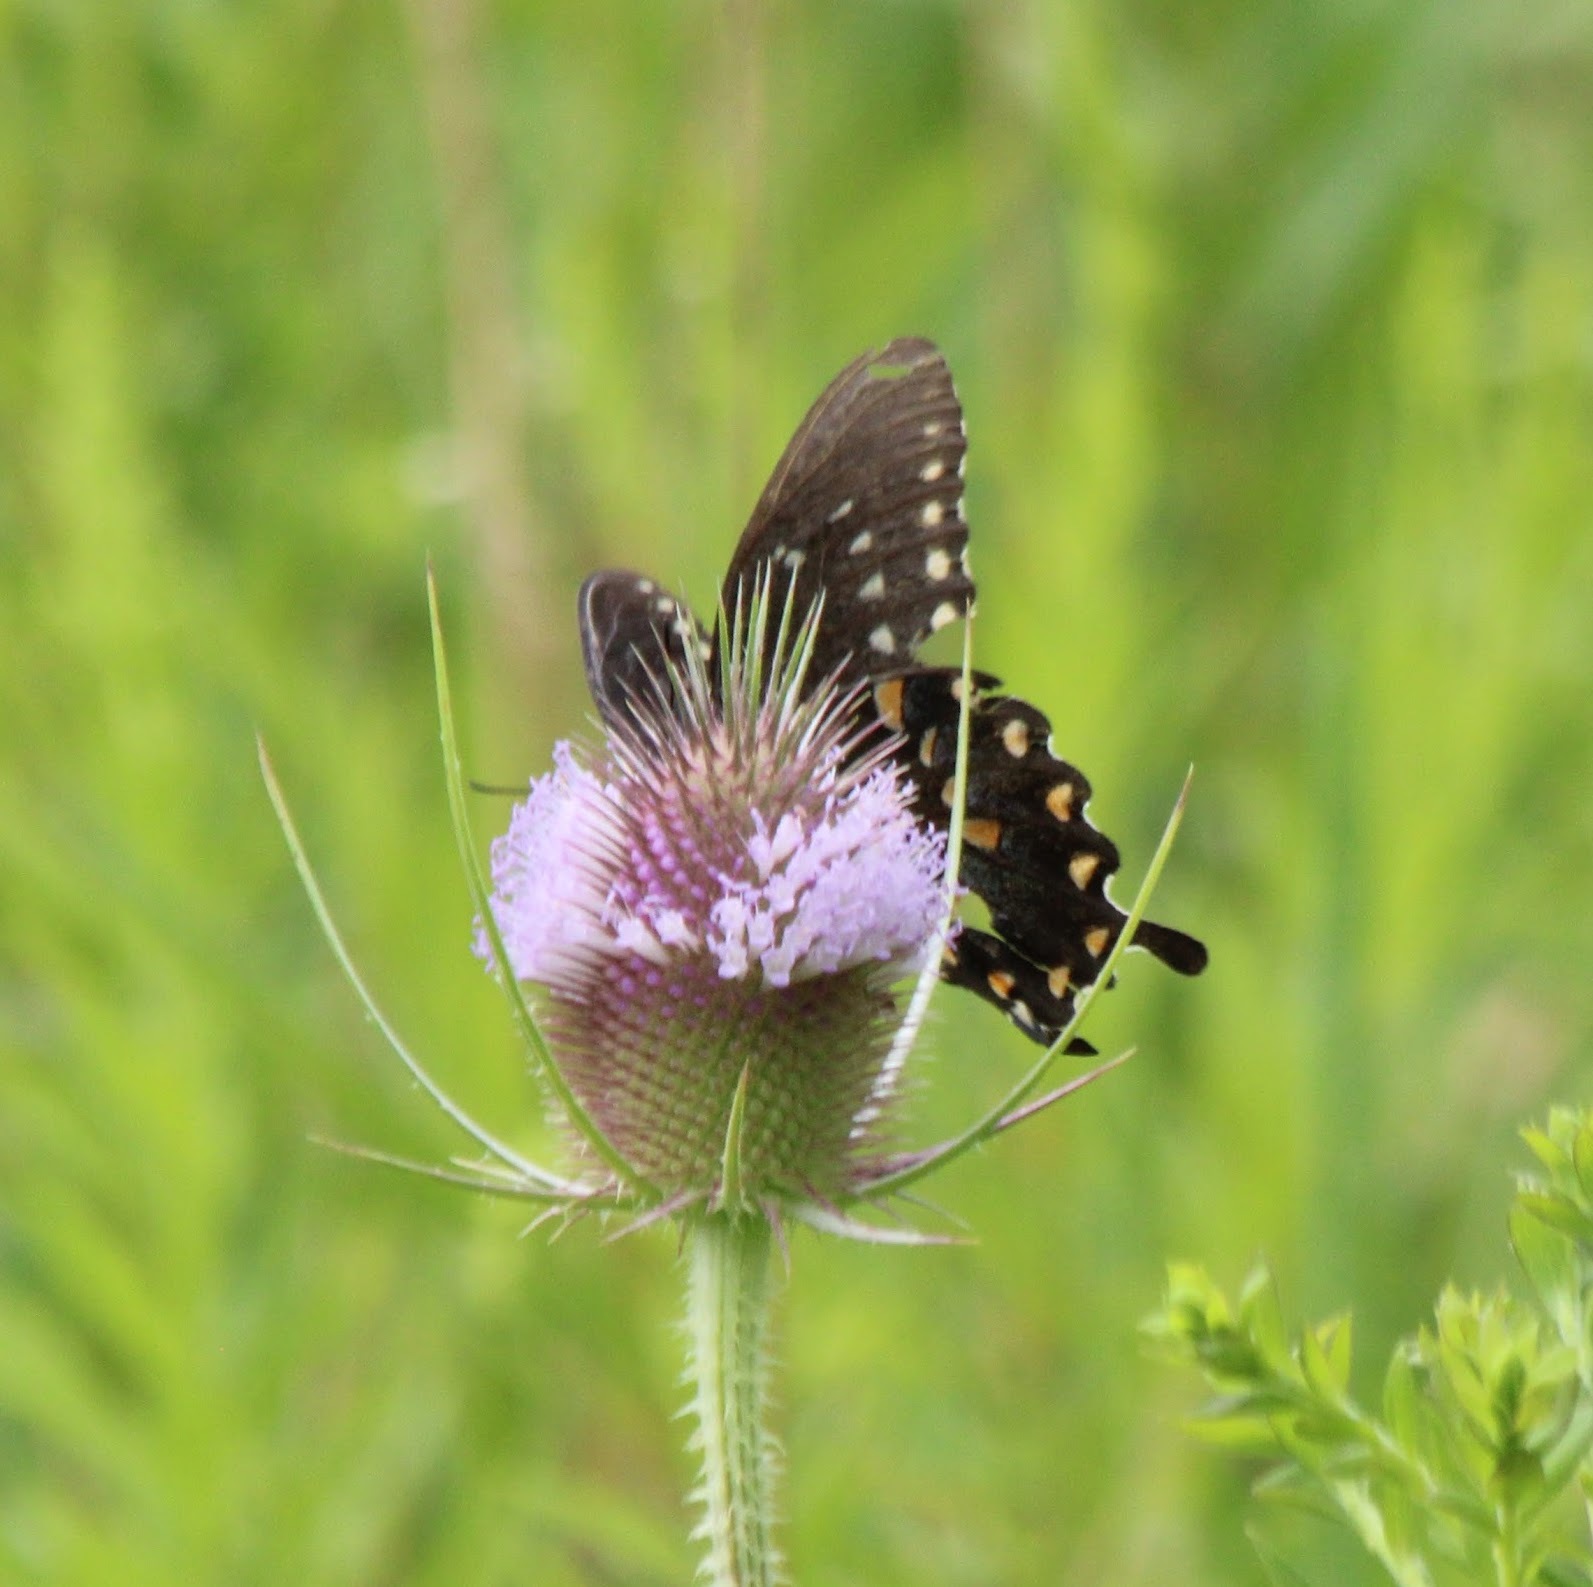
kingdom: Animalia
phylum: Arthropoda
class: Insecta
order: Lepidoptera
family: Papilionidae
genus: Papilio
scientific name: Papilio troilus
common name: Spicebush swallowtail
